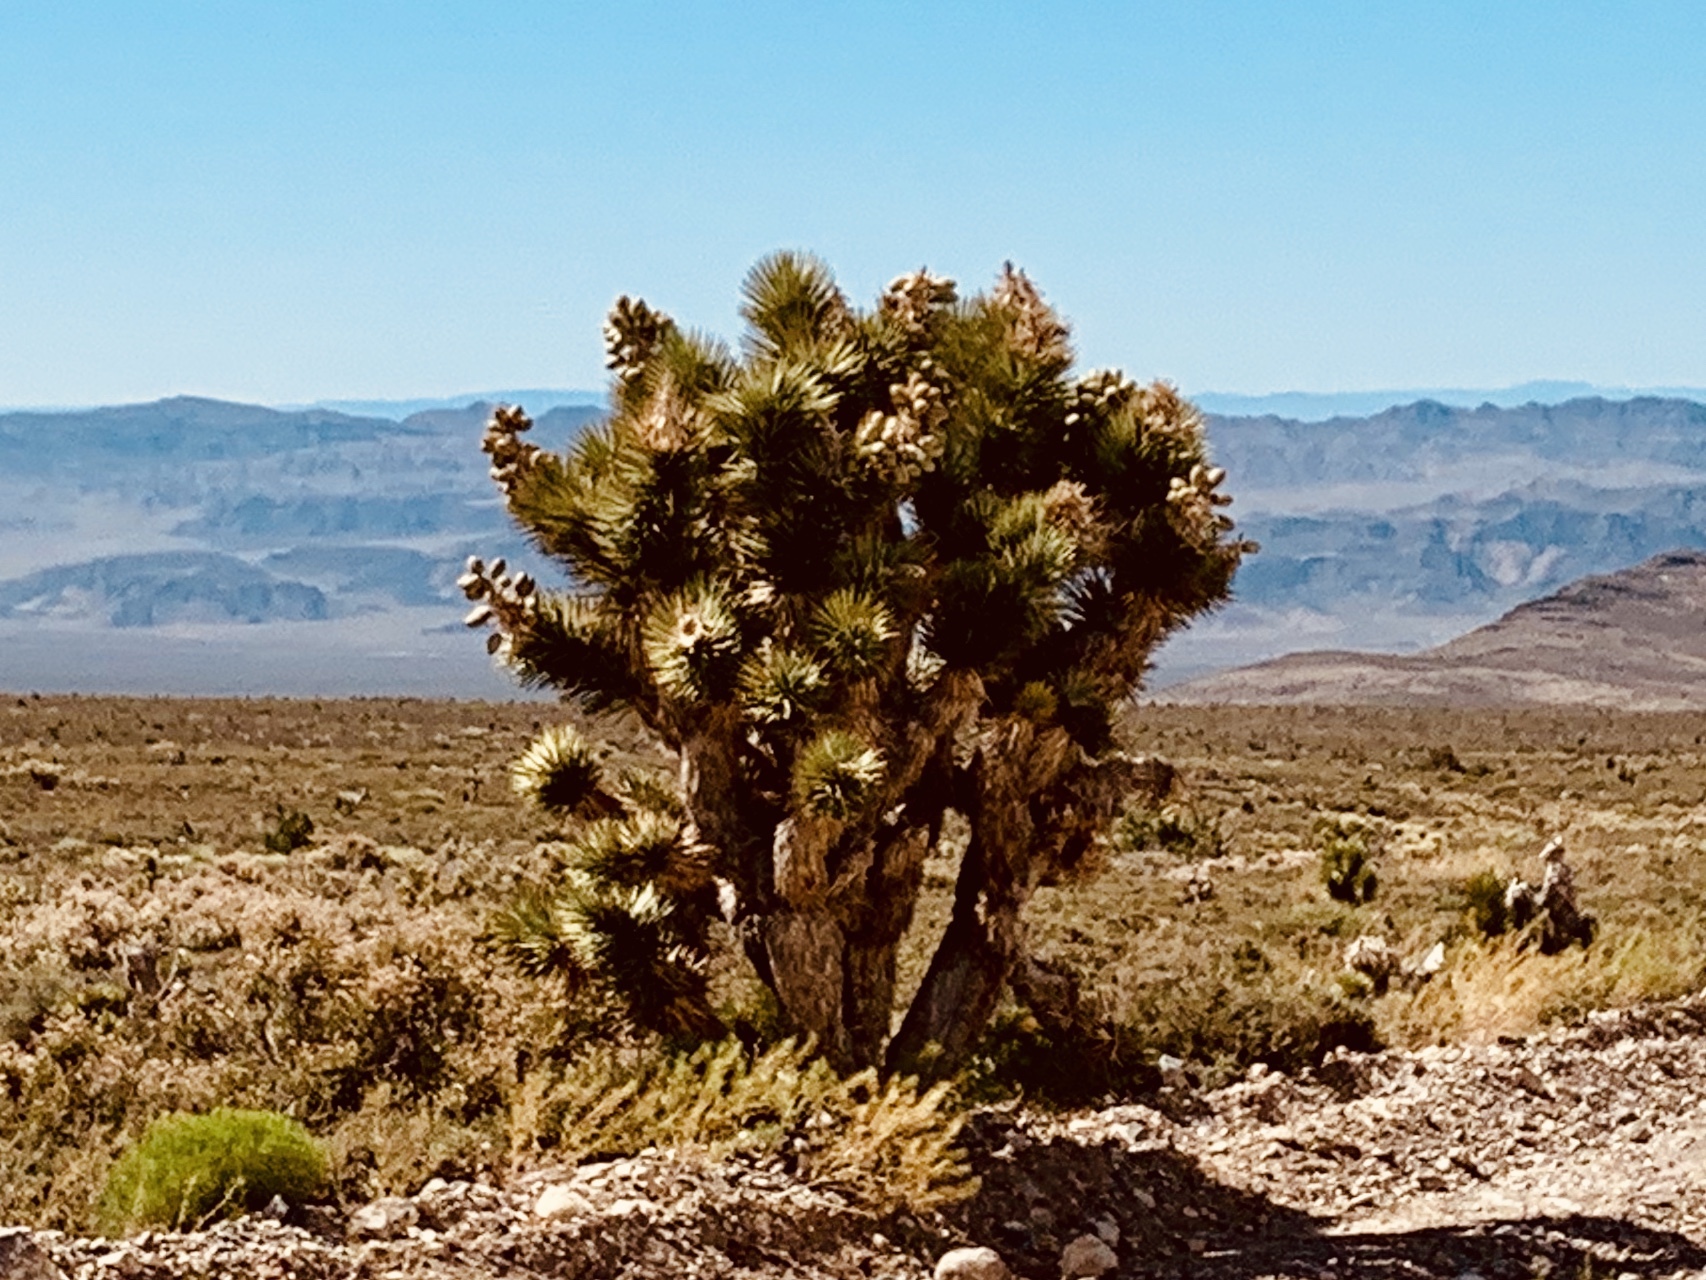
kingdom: Plantae
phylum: Tracheophyta
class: Liliopsida
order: Asparagales
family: Asparagaceae
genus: Yucca
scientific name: Yucca brevifolia
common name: Joshua tree
